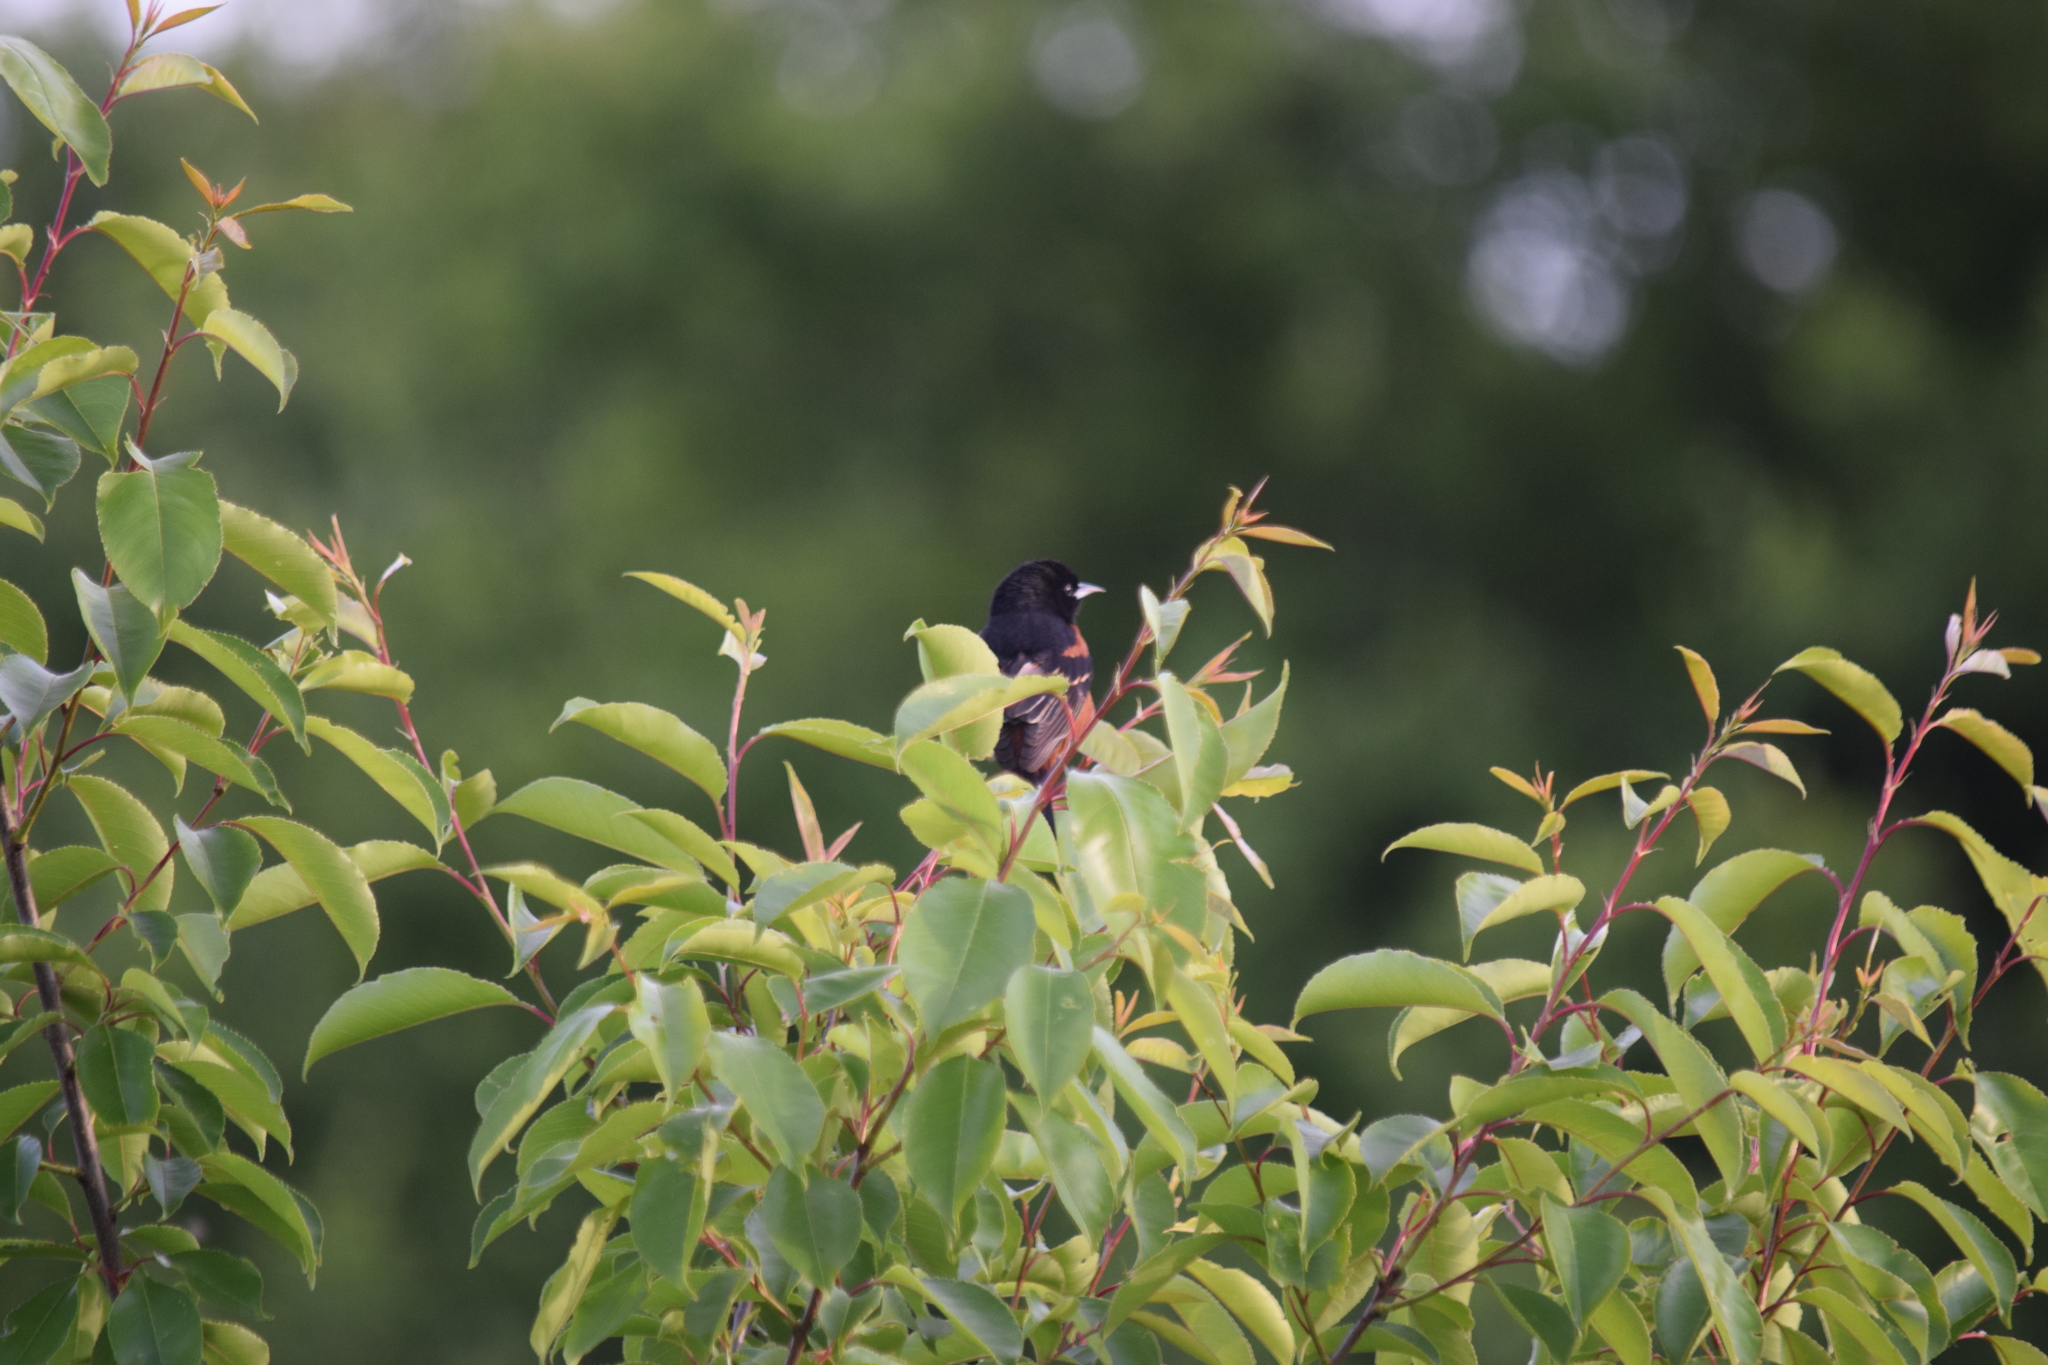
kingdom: Animalia
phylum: Chordata
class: Aves
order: Passeriformes
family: Icteridae
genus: Icterus
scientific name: Icterus spurius
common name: Orchard oriole
